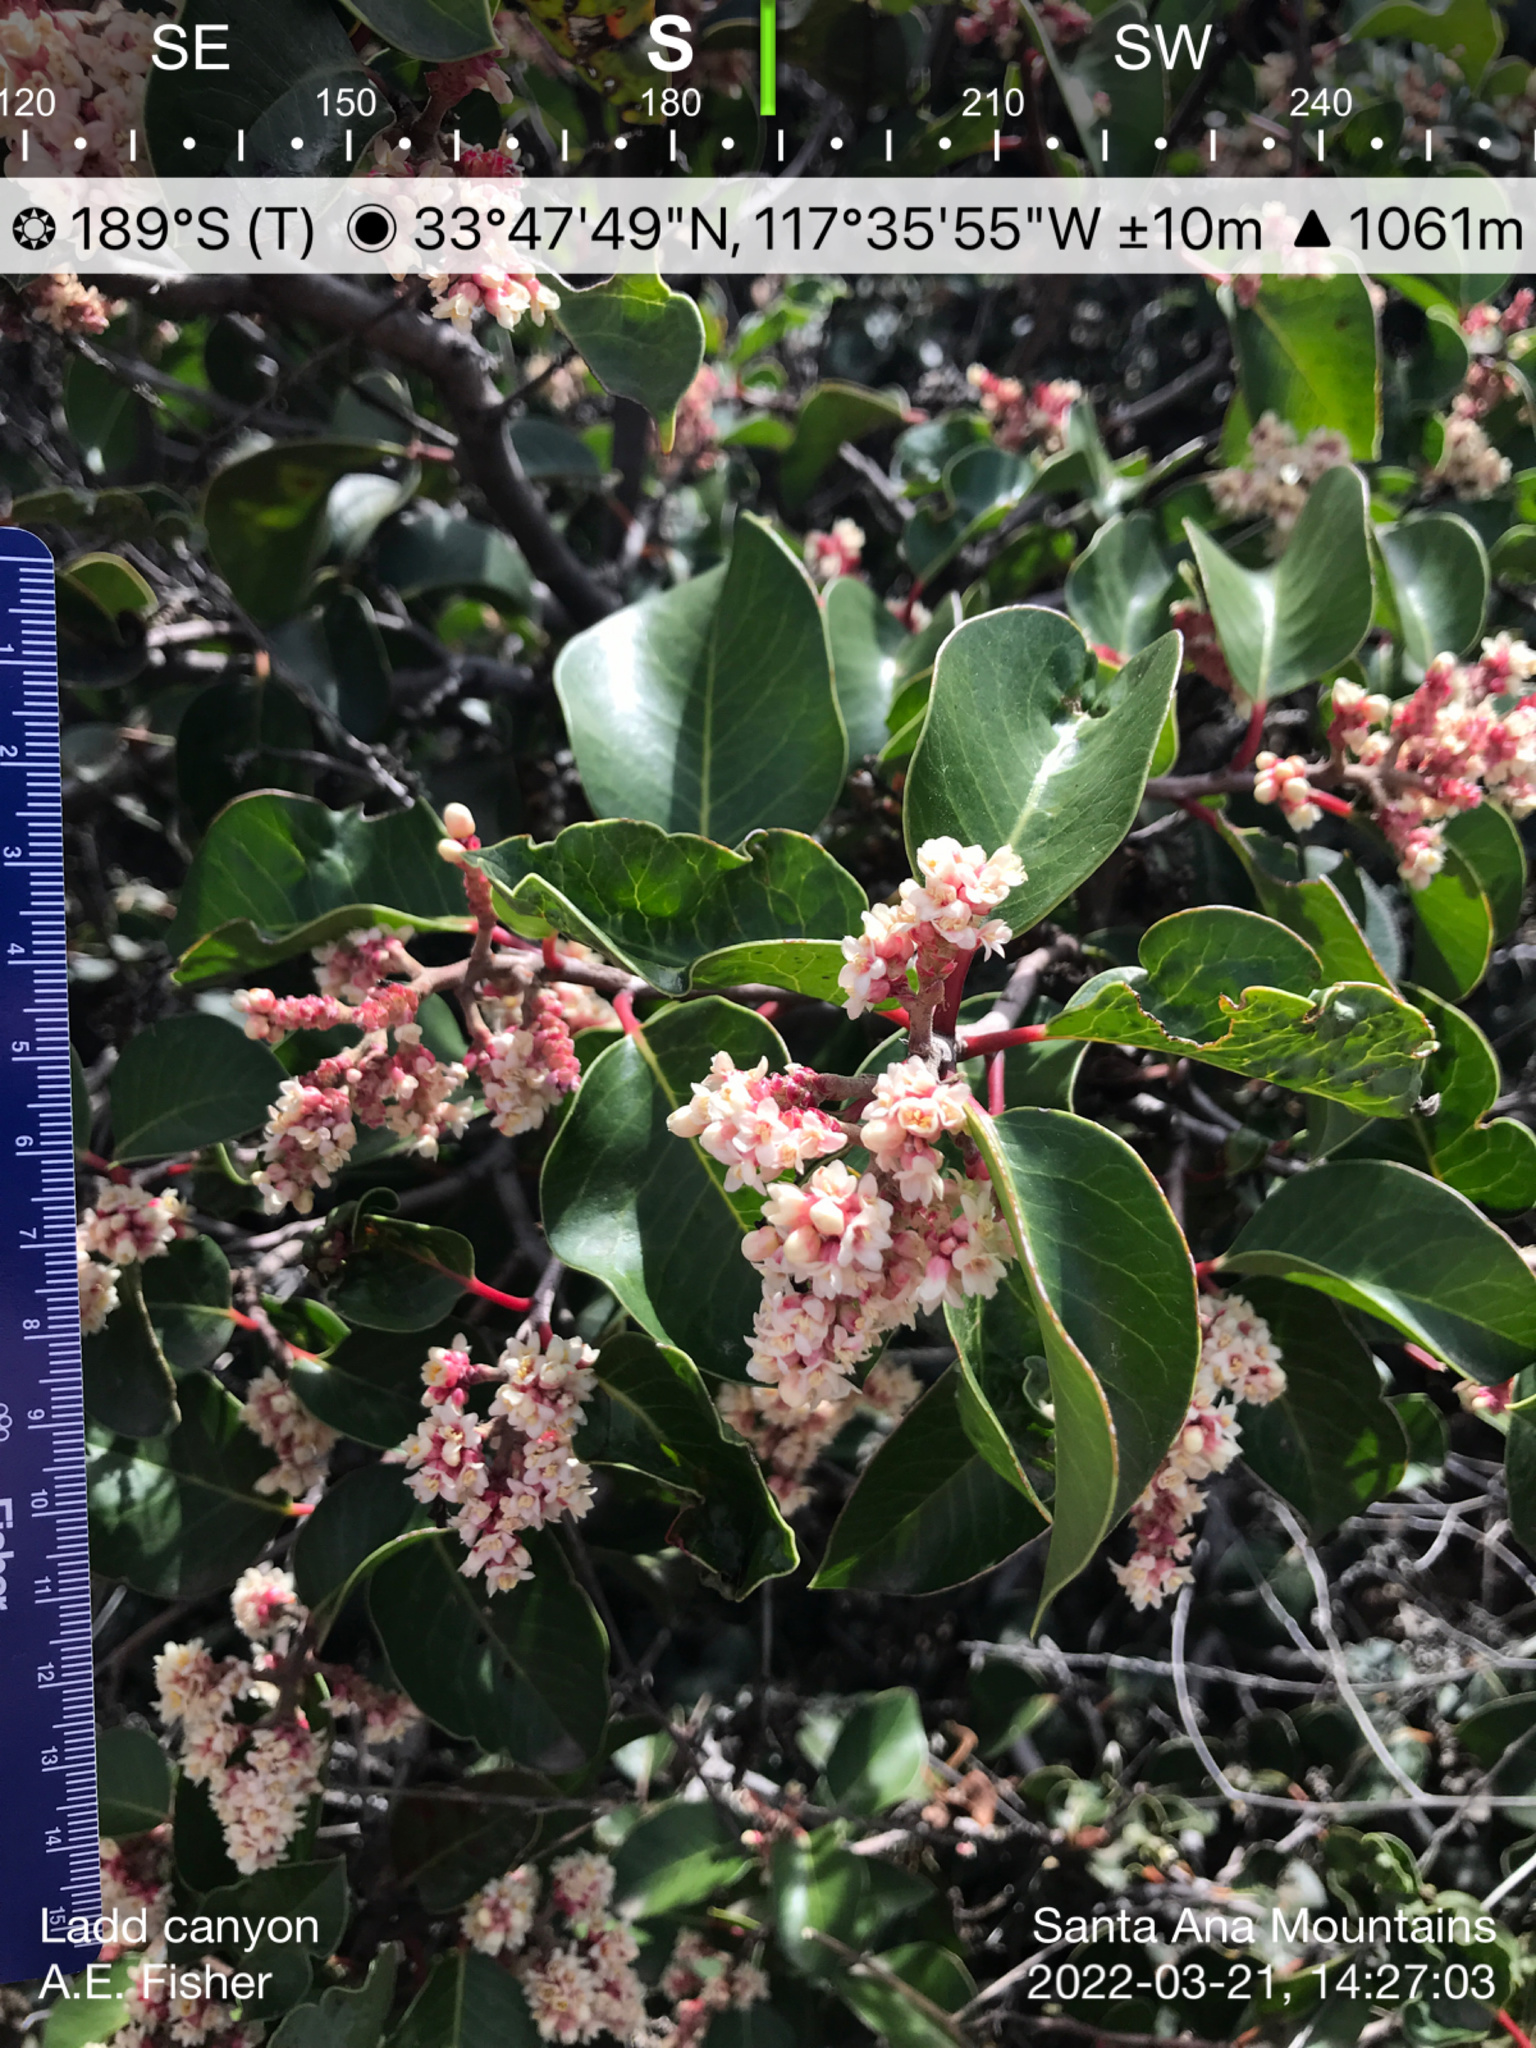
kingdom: Plantae
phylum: Tracheophyta
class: Magnoliopsida
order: Sapindales
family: Anacardiaceae
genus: Rhus
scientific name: Rhus ovata
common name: Sugar sumac
